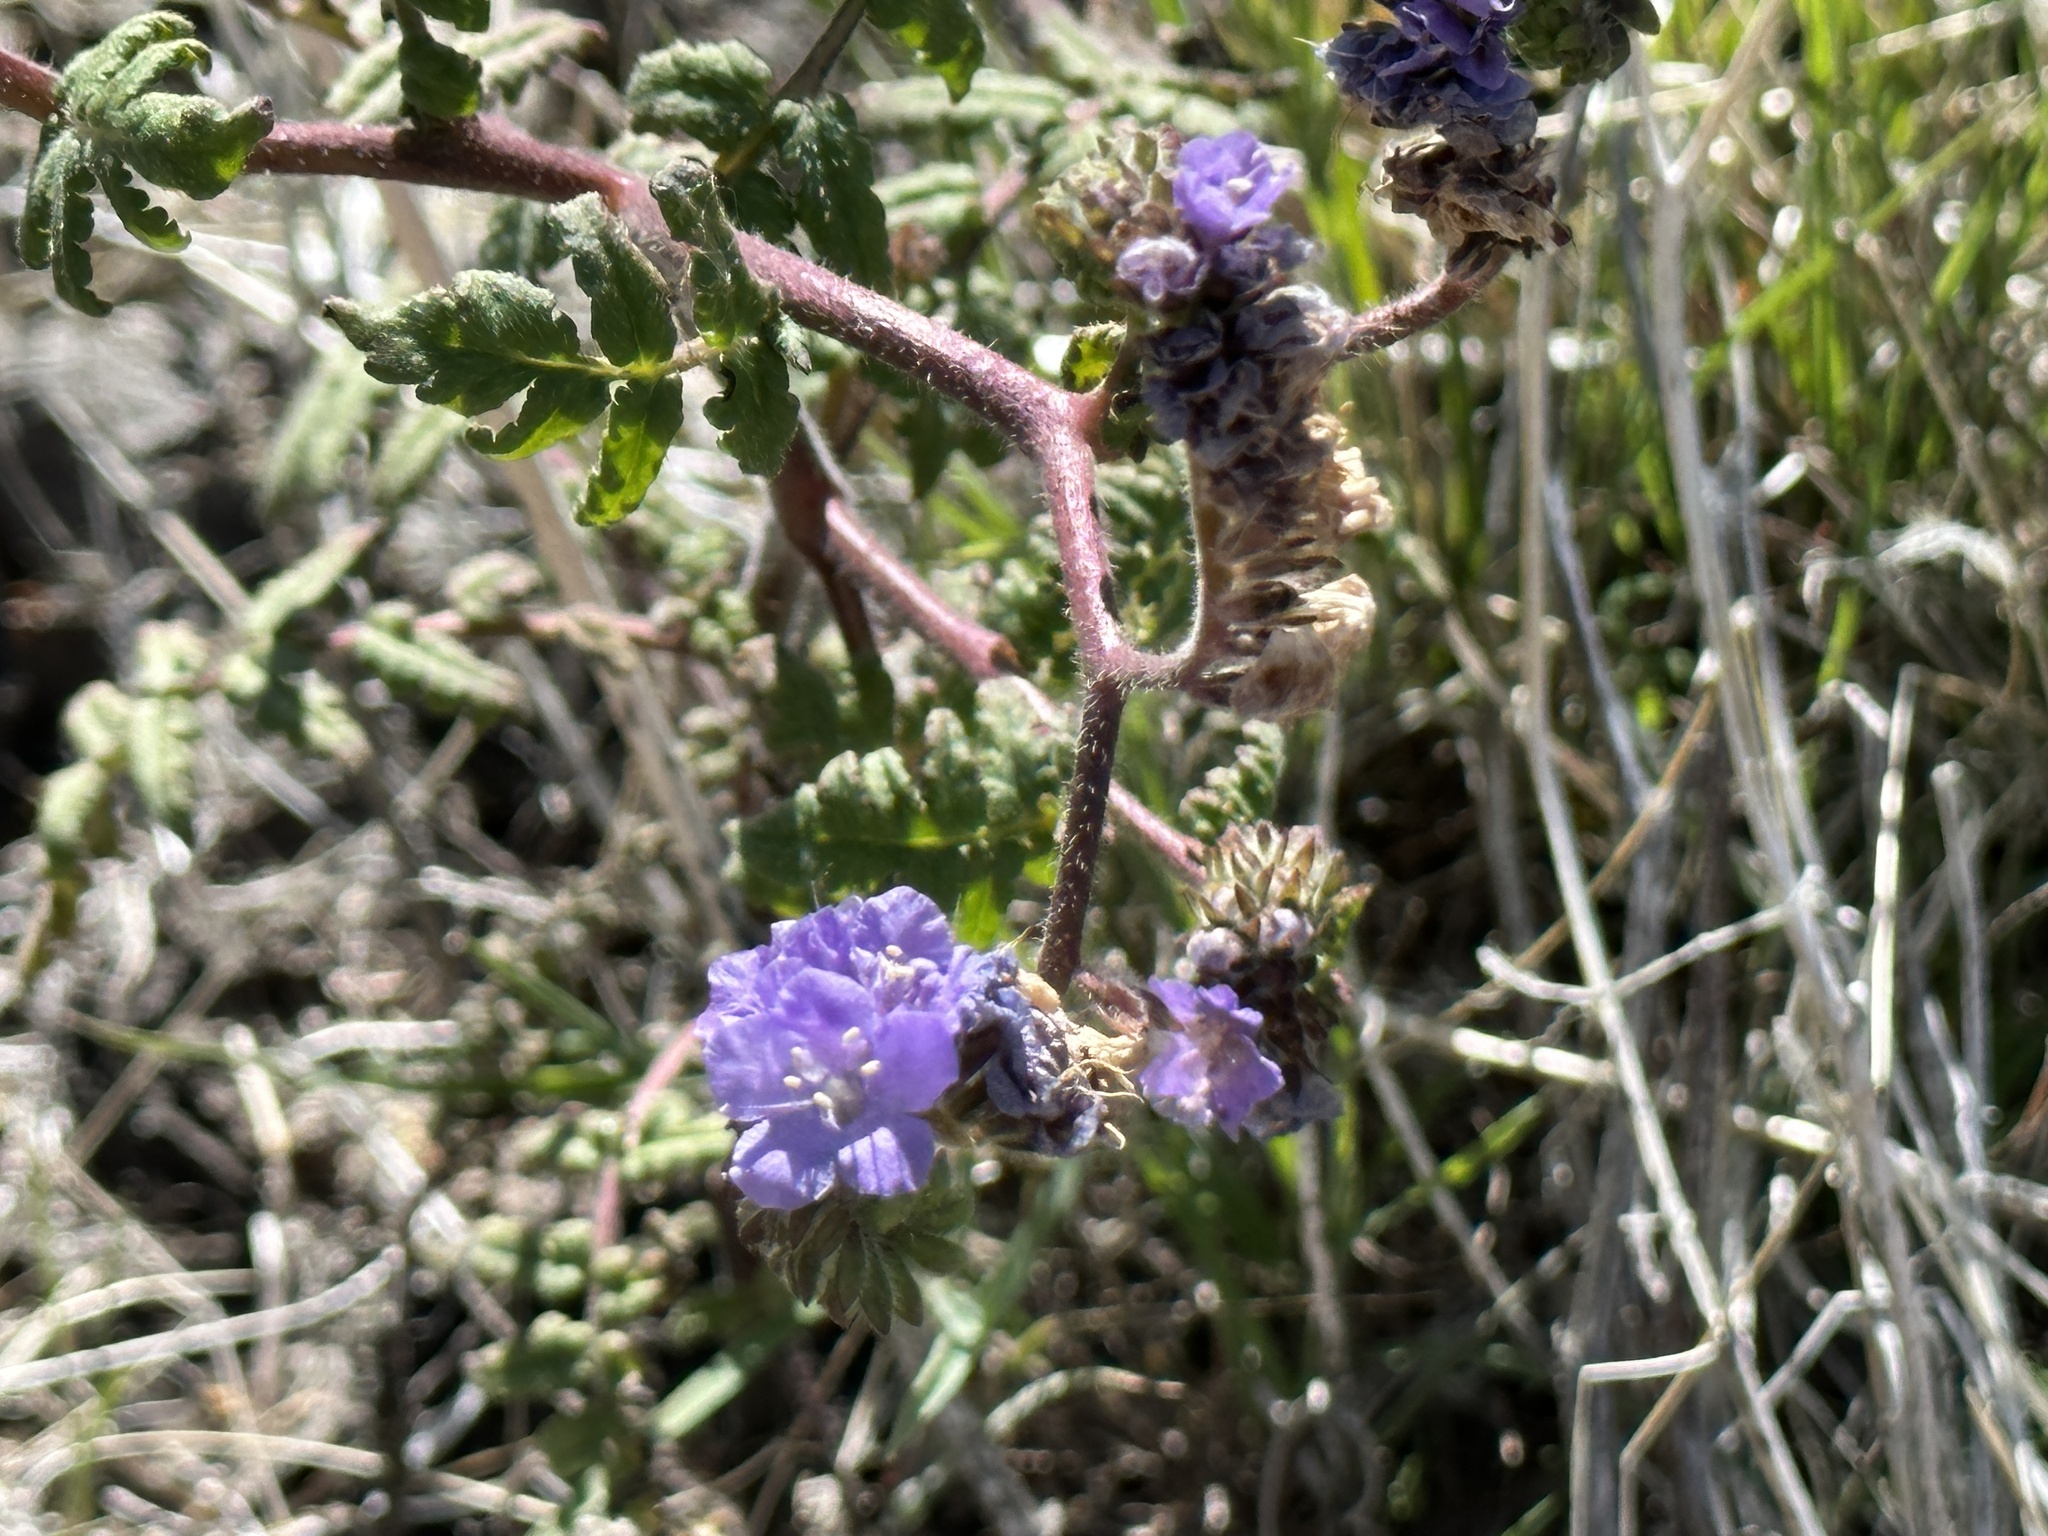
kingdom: Plantae
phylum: Tracheophyta
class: Magnoliopsida
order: Boraginales
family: Hydrophyllaceae
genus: Phacelia
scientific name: Phacelia distans
